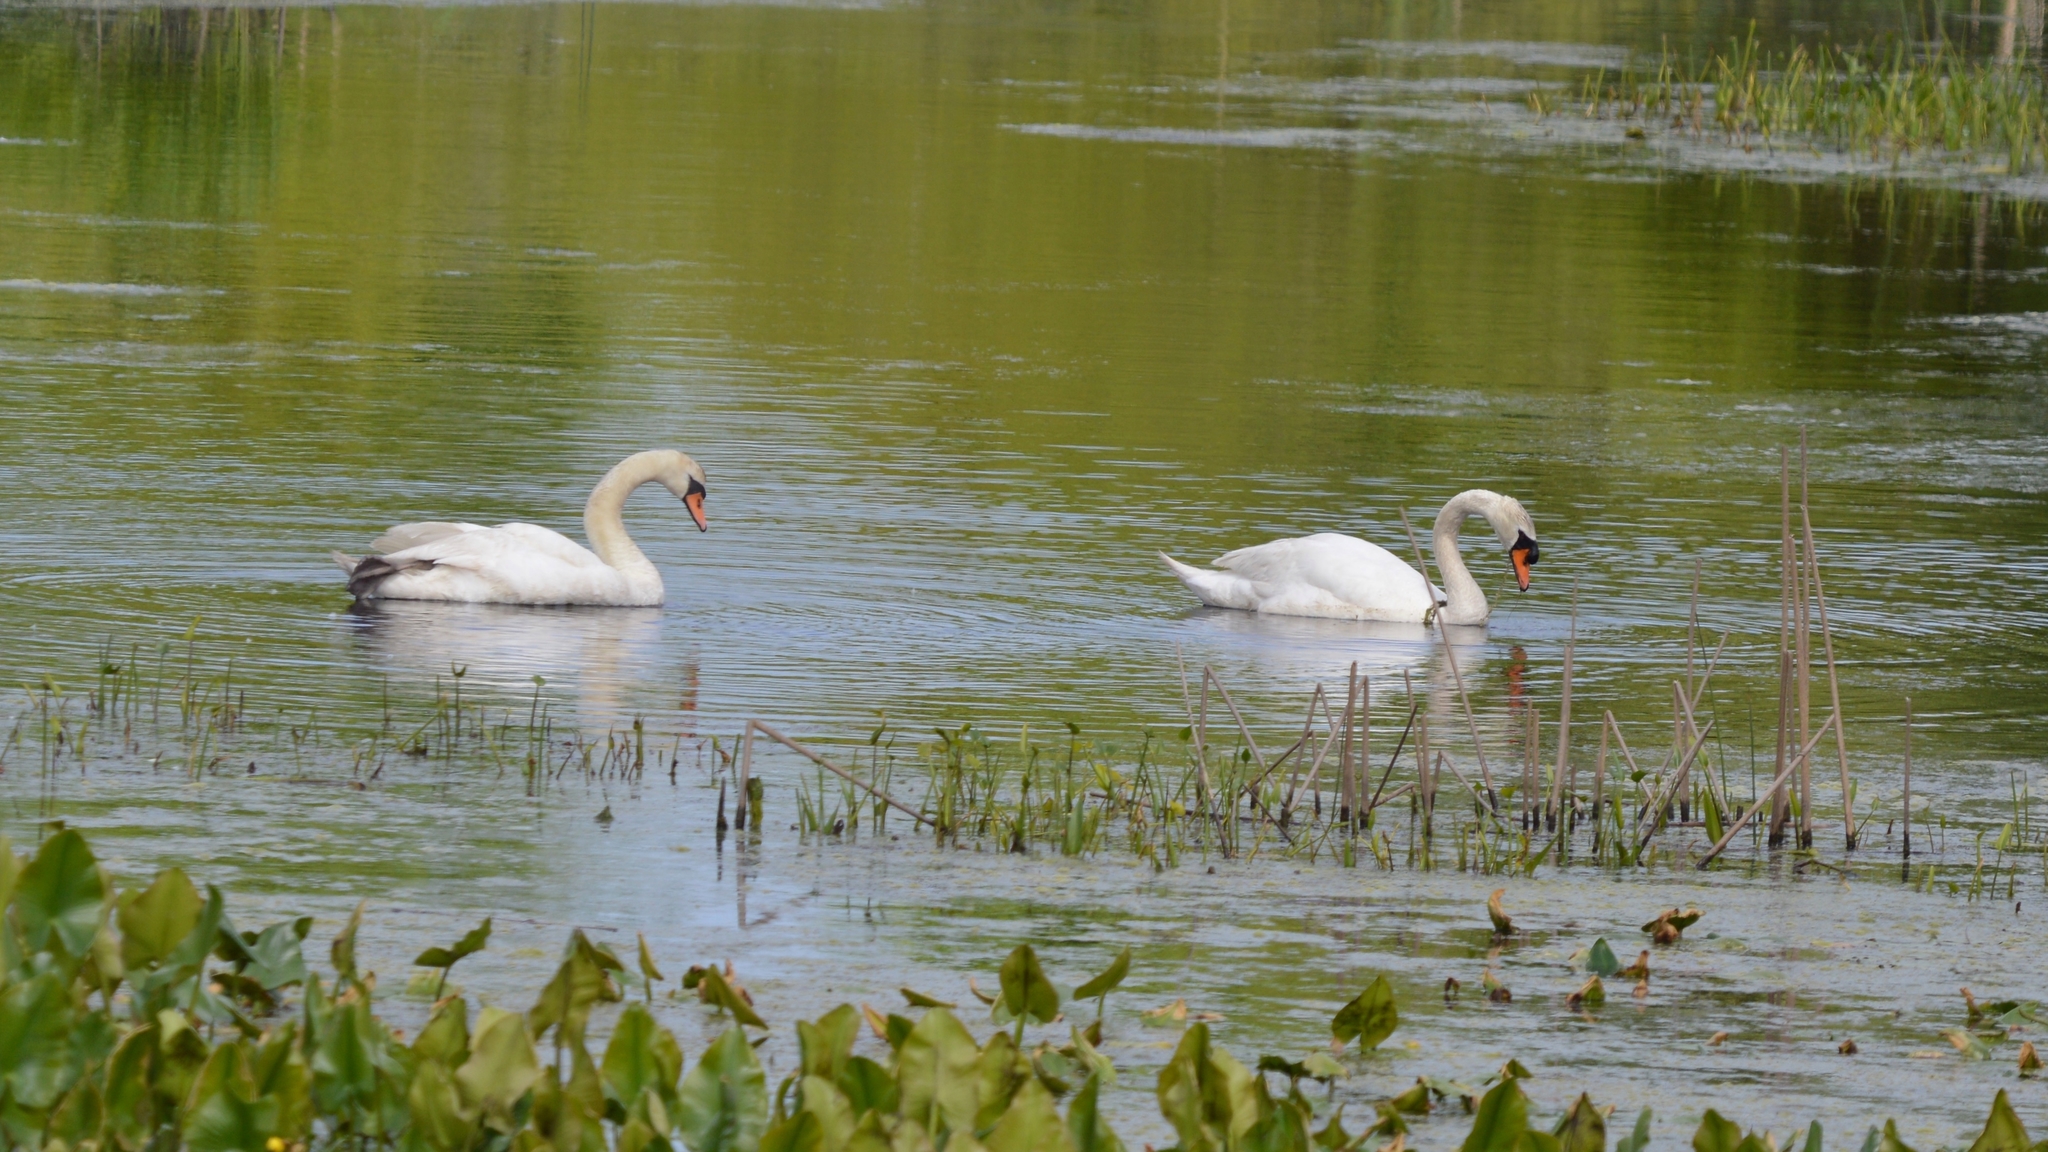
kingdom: Animalia
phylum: Chordata
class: Aves
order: Anseriformes
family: Anatidae
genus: Cygnus
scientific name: Cygnus olor
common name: Mute swan
